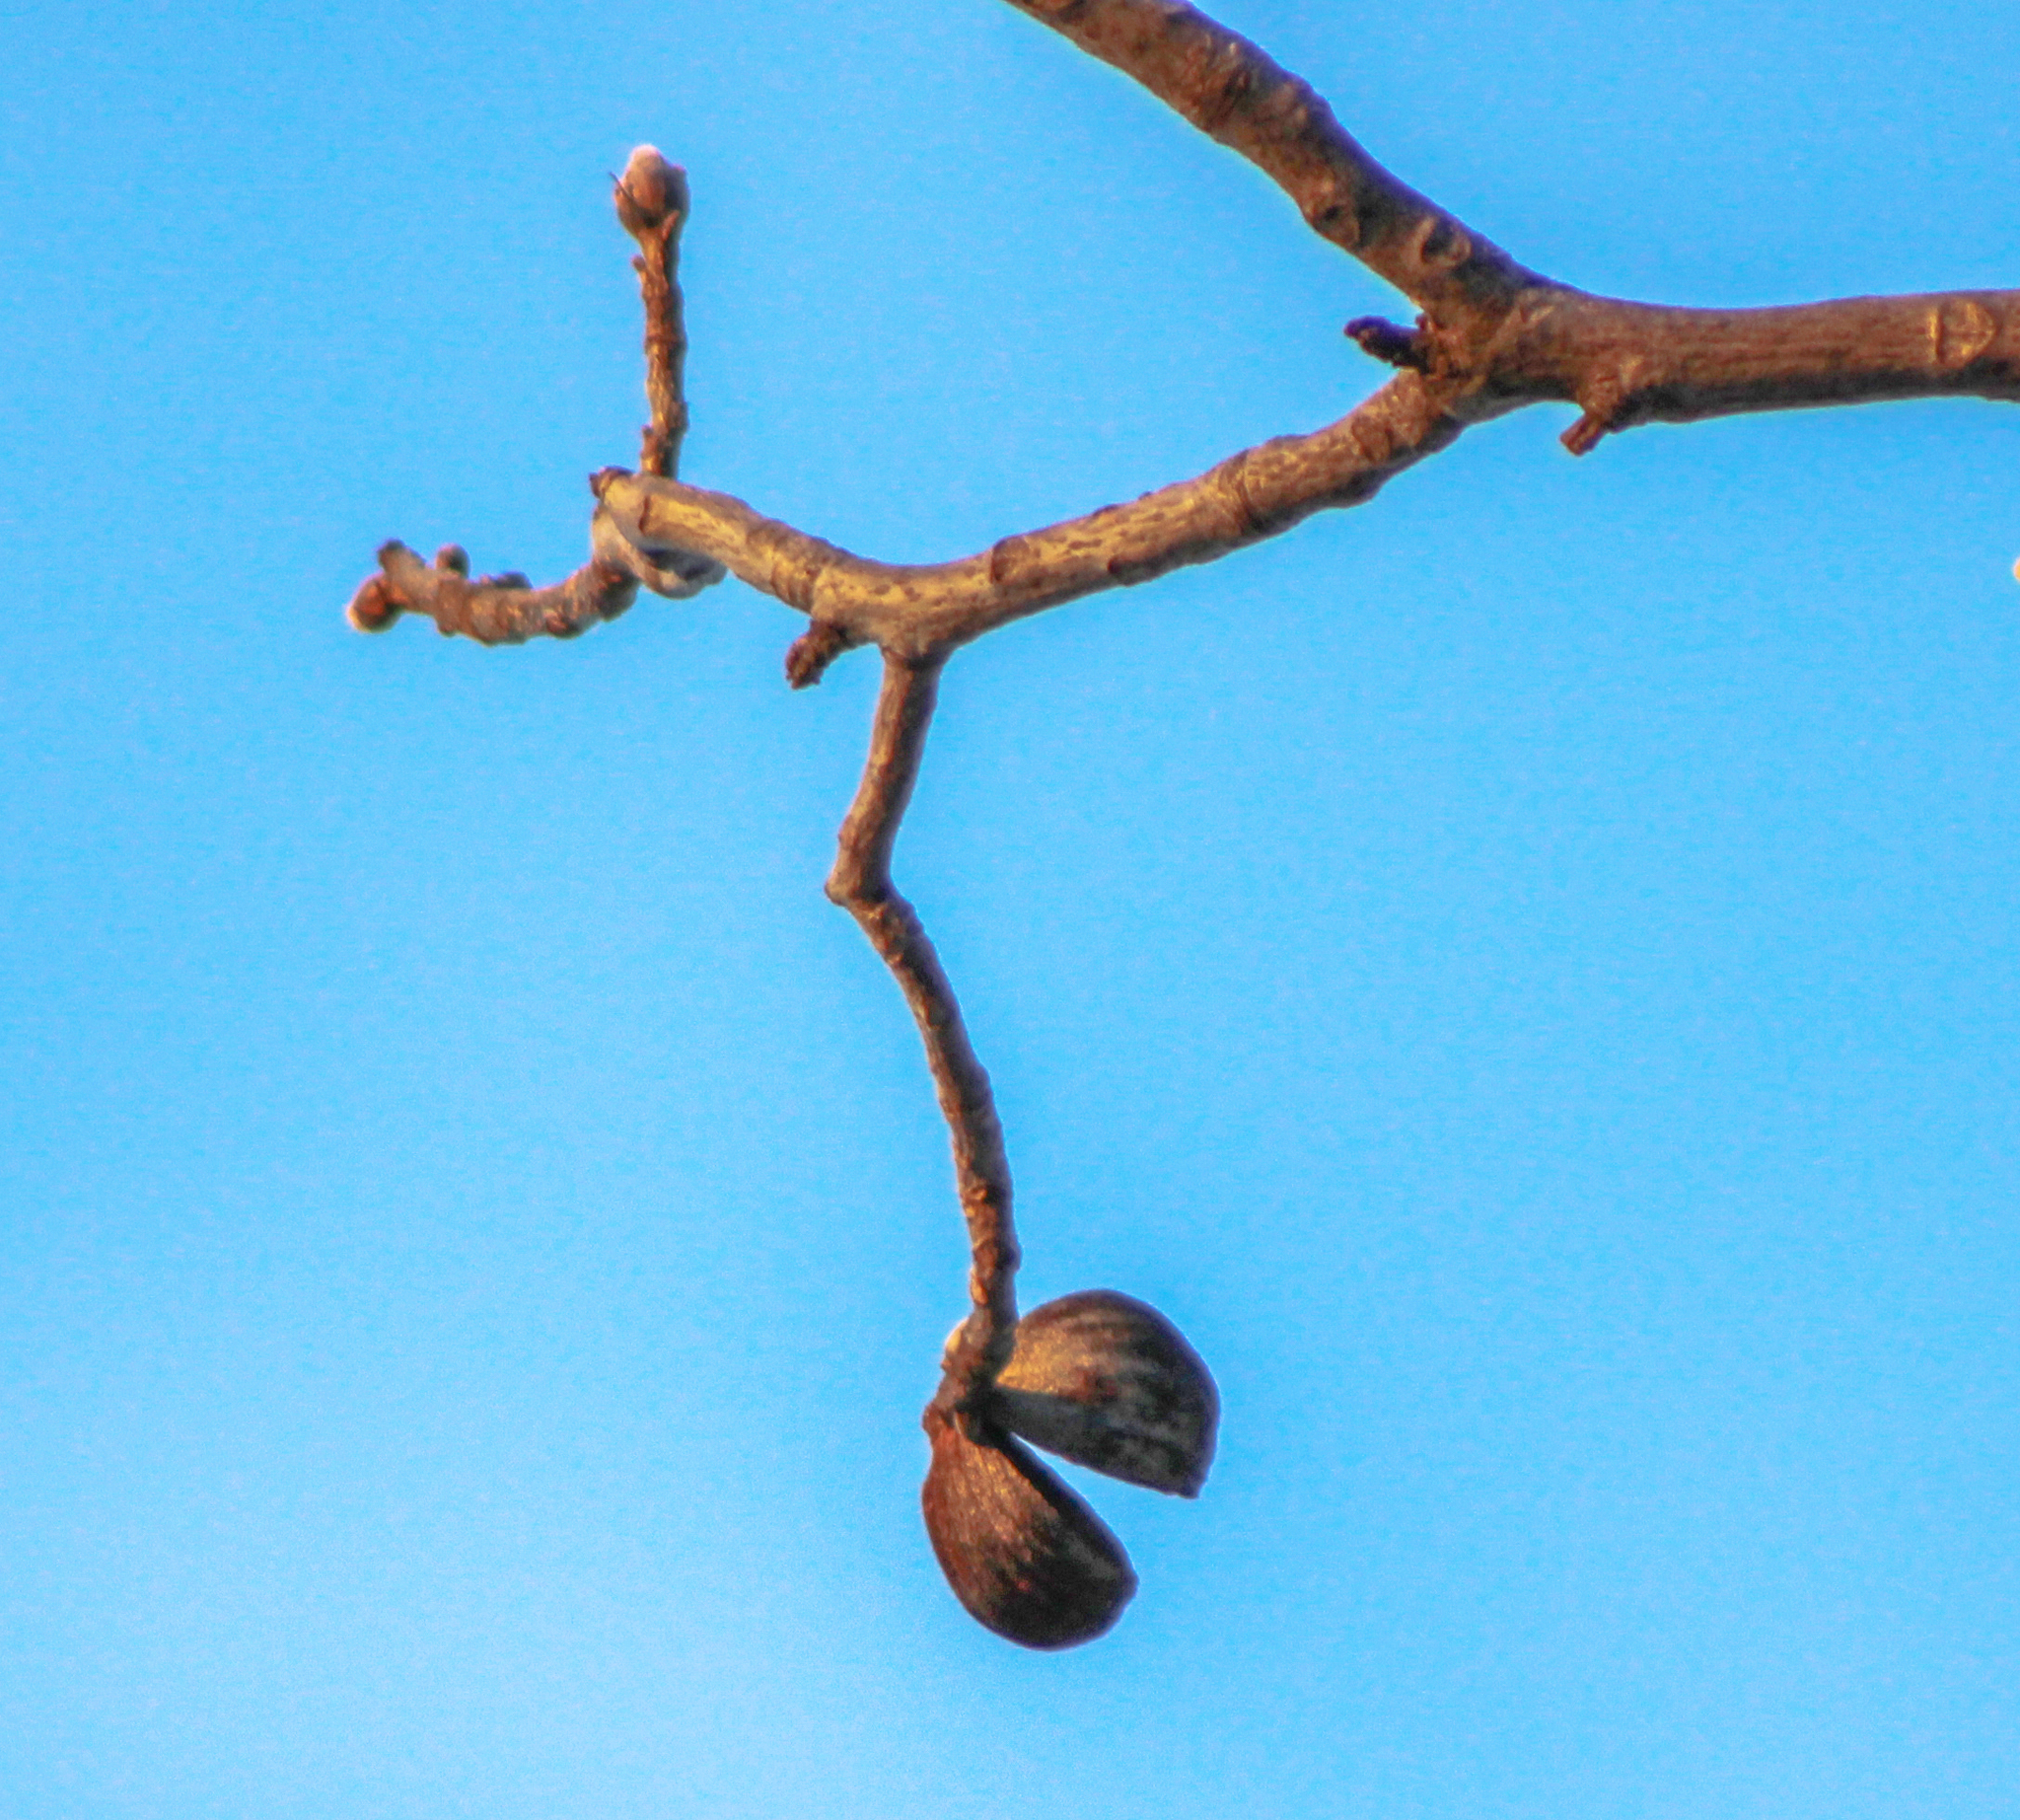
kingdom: Plantae
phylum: Tracheophyta
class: Magnoliopsida
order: Fagales
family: Juglandaceae
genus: Carya
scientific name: Carya ovata
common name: Shagbark hickory
